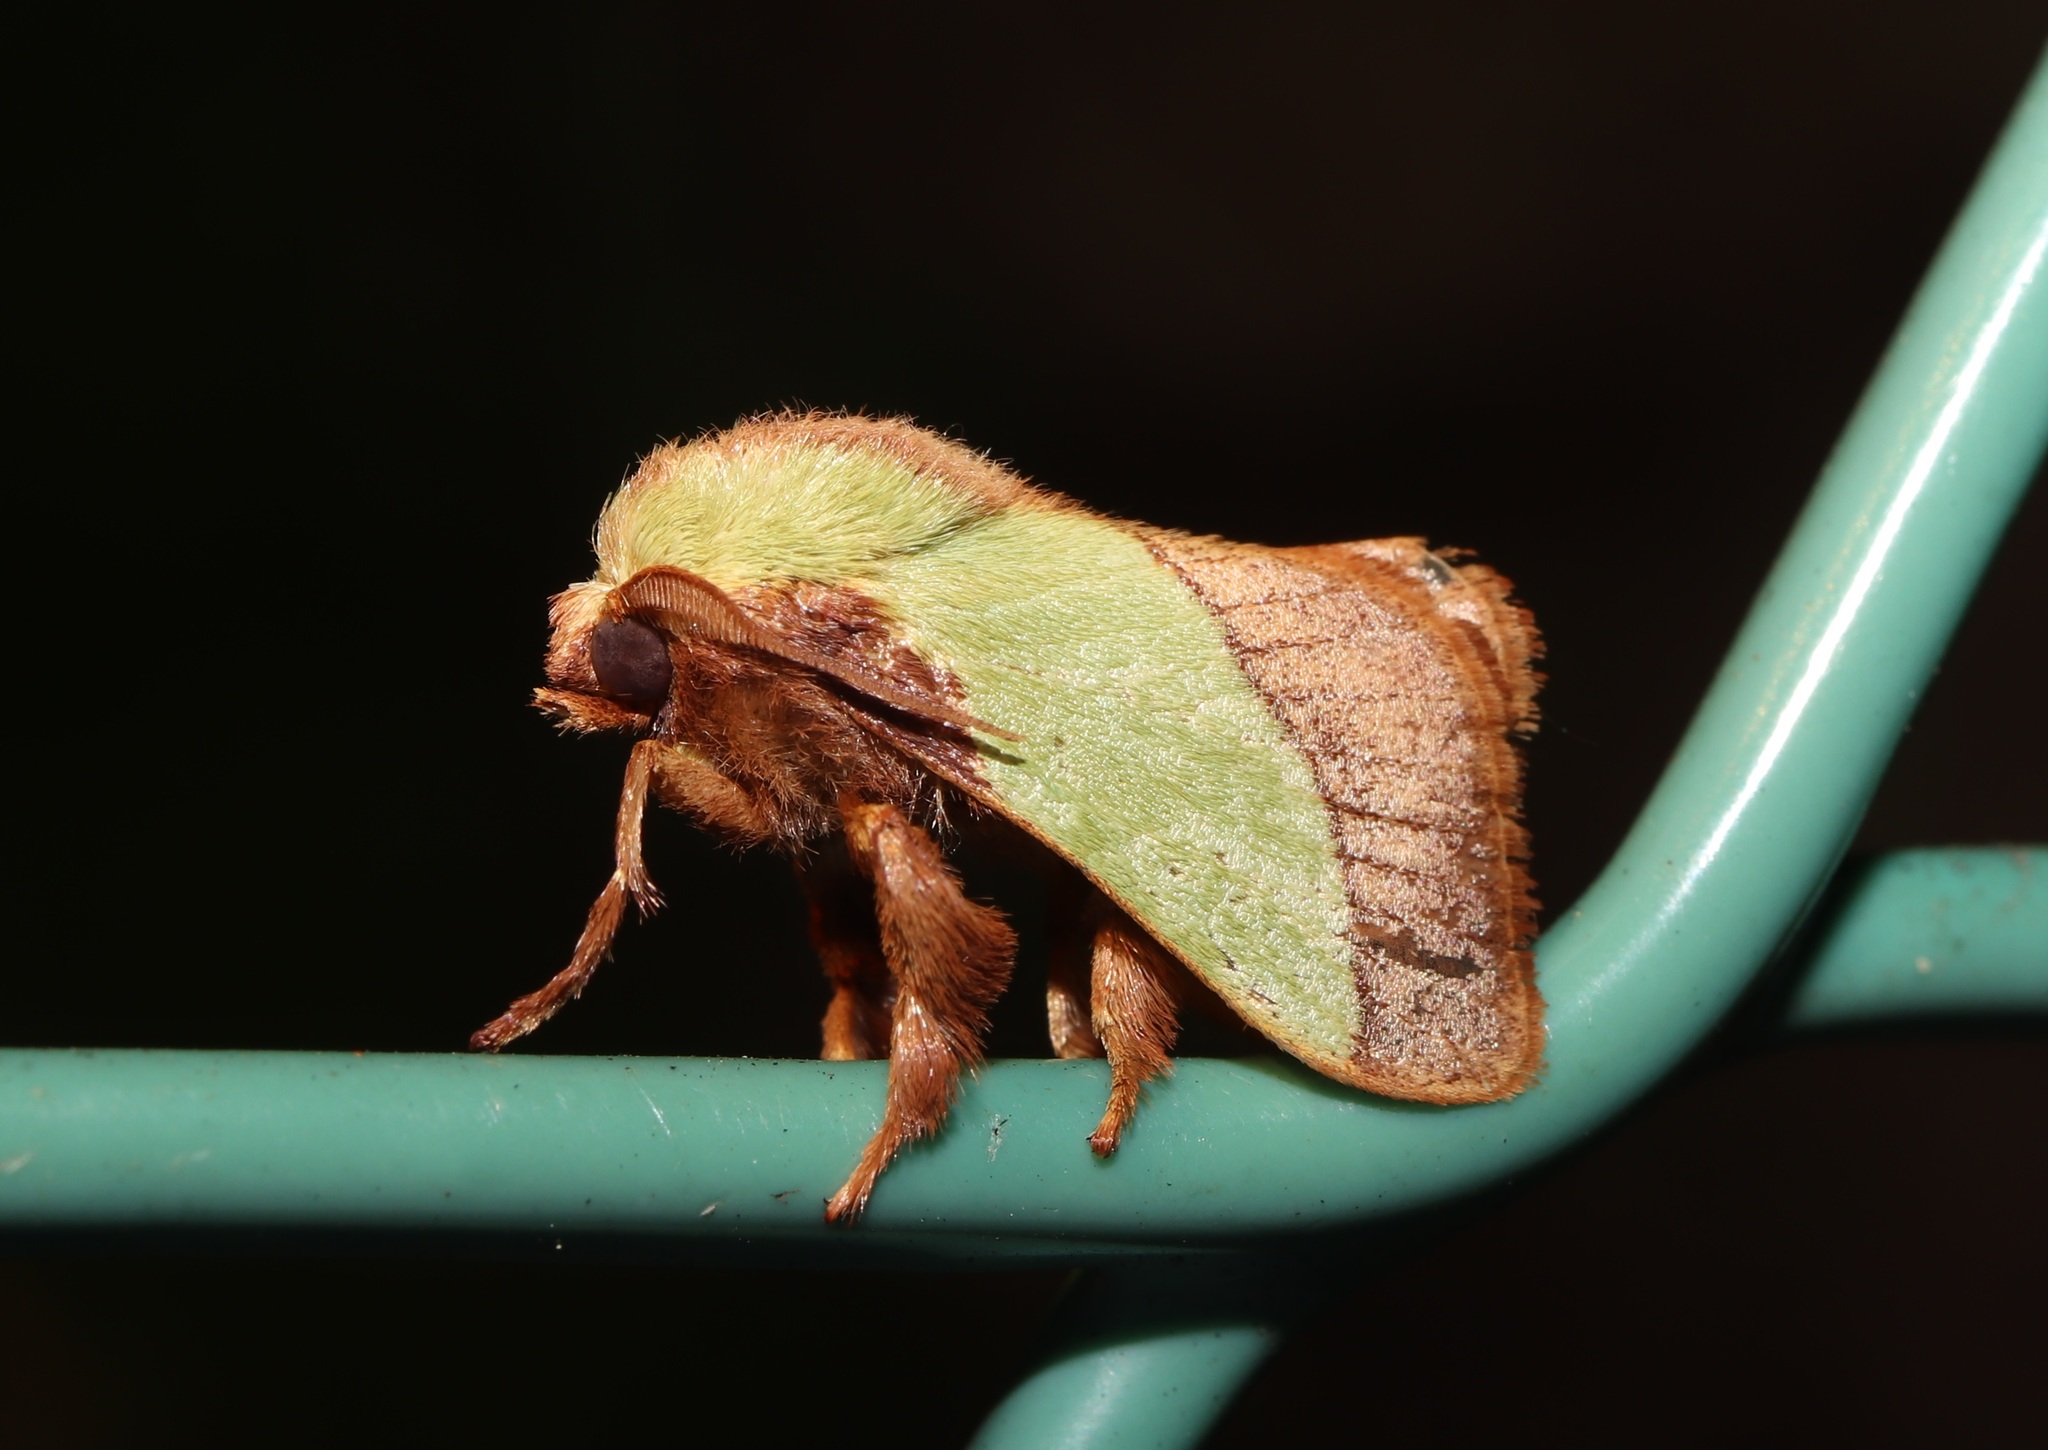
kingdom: Animalia
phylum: Arthropoda
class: Insecta
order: Lepidoptera
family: Limacodidae
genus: Parasa
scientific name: Parasa lepida
